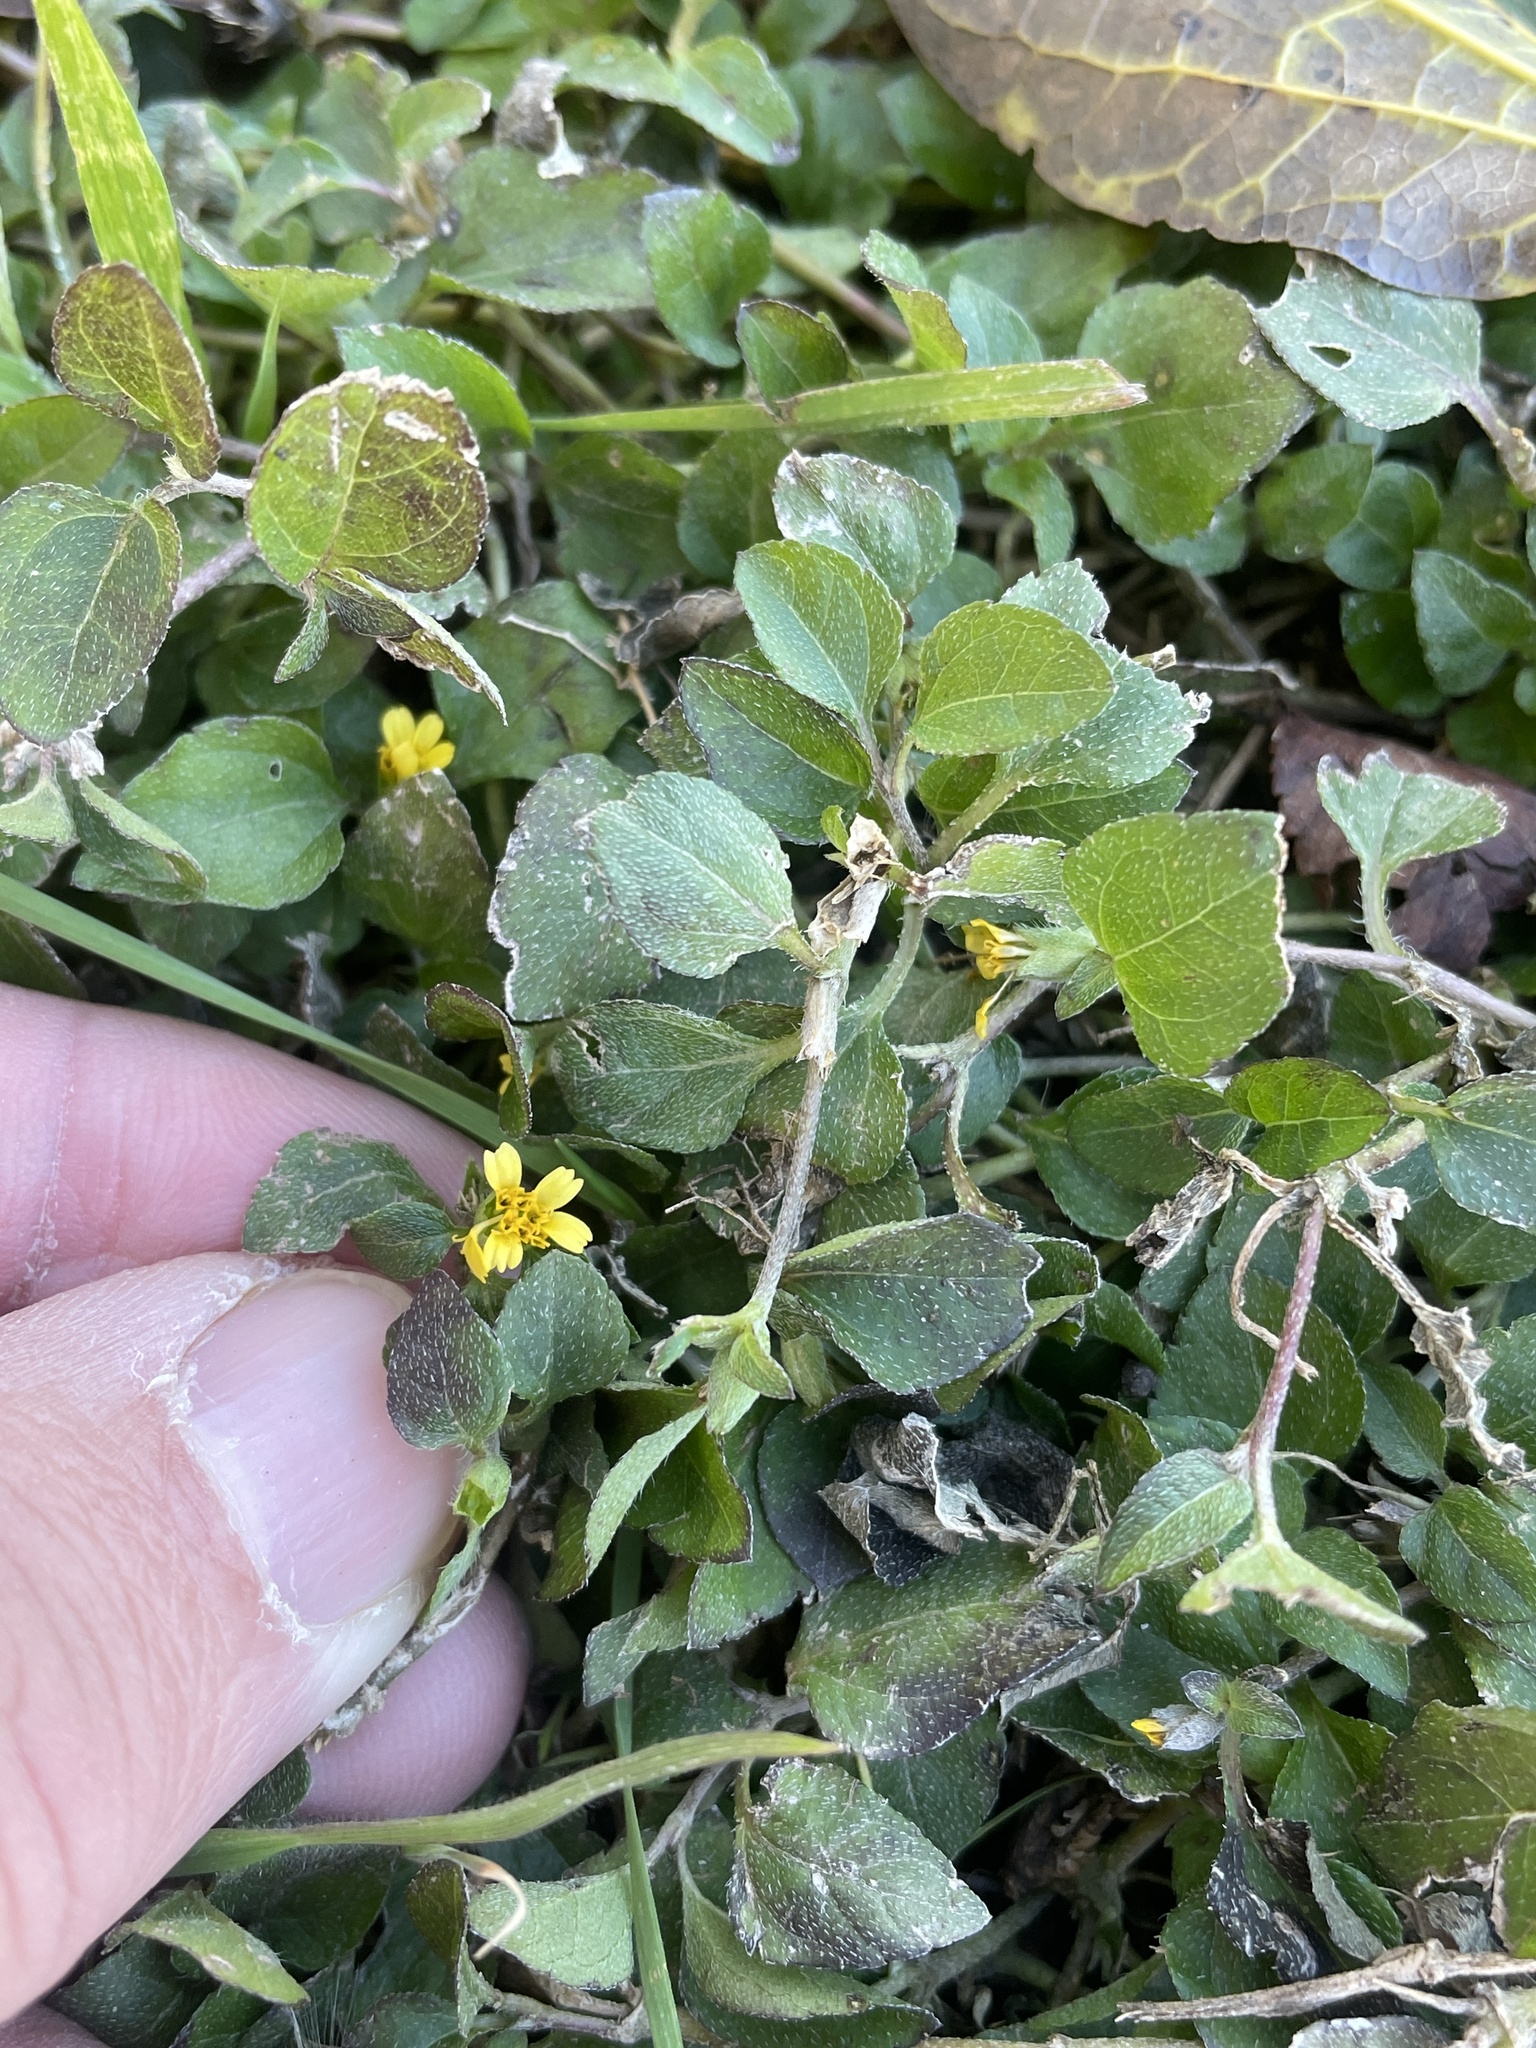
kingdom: Plantae
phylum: Tracheophyta
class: Magnoliopsida
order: Asterales
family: Asteraceae
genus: Calyptocarpus
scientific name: Calyptocarpus vialis
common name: Straggler daisy
